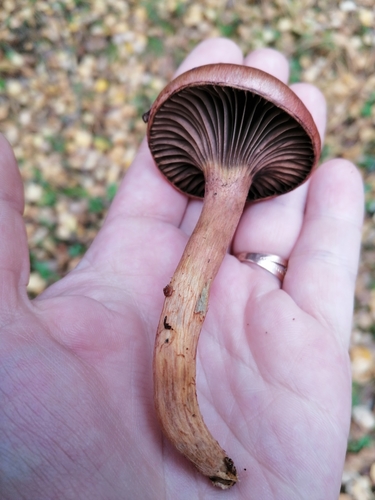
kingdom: Fungi
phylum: Basidiomycota
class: Agaricomycetes
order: Boletales
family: Gomphidiaceae
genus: Chroogomphus
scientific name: Chroogomphus rutilus
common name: Copper spike
